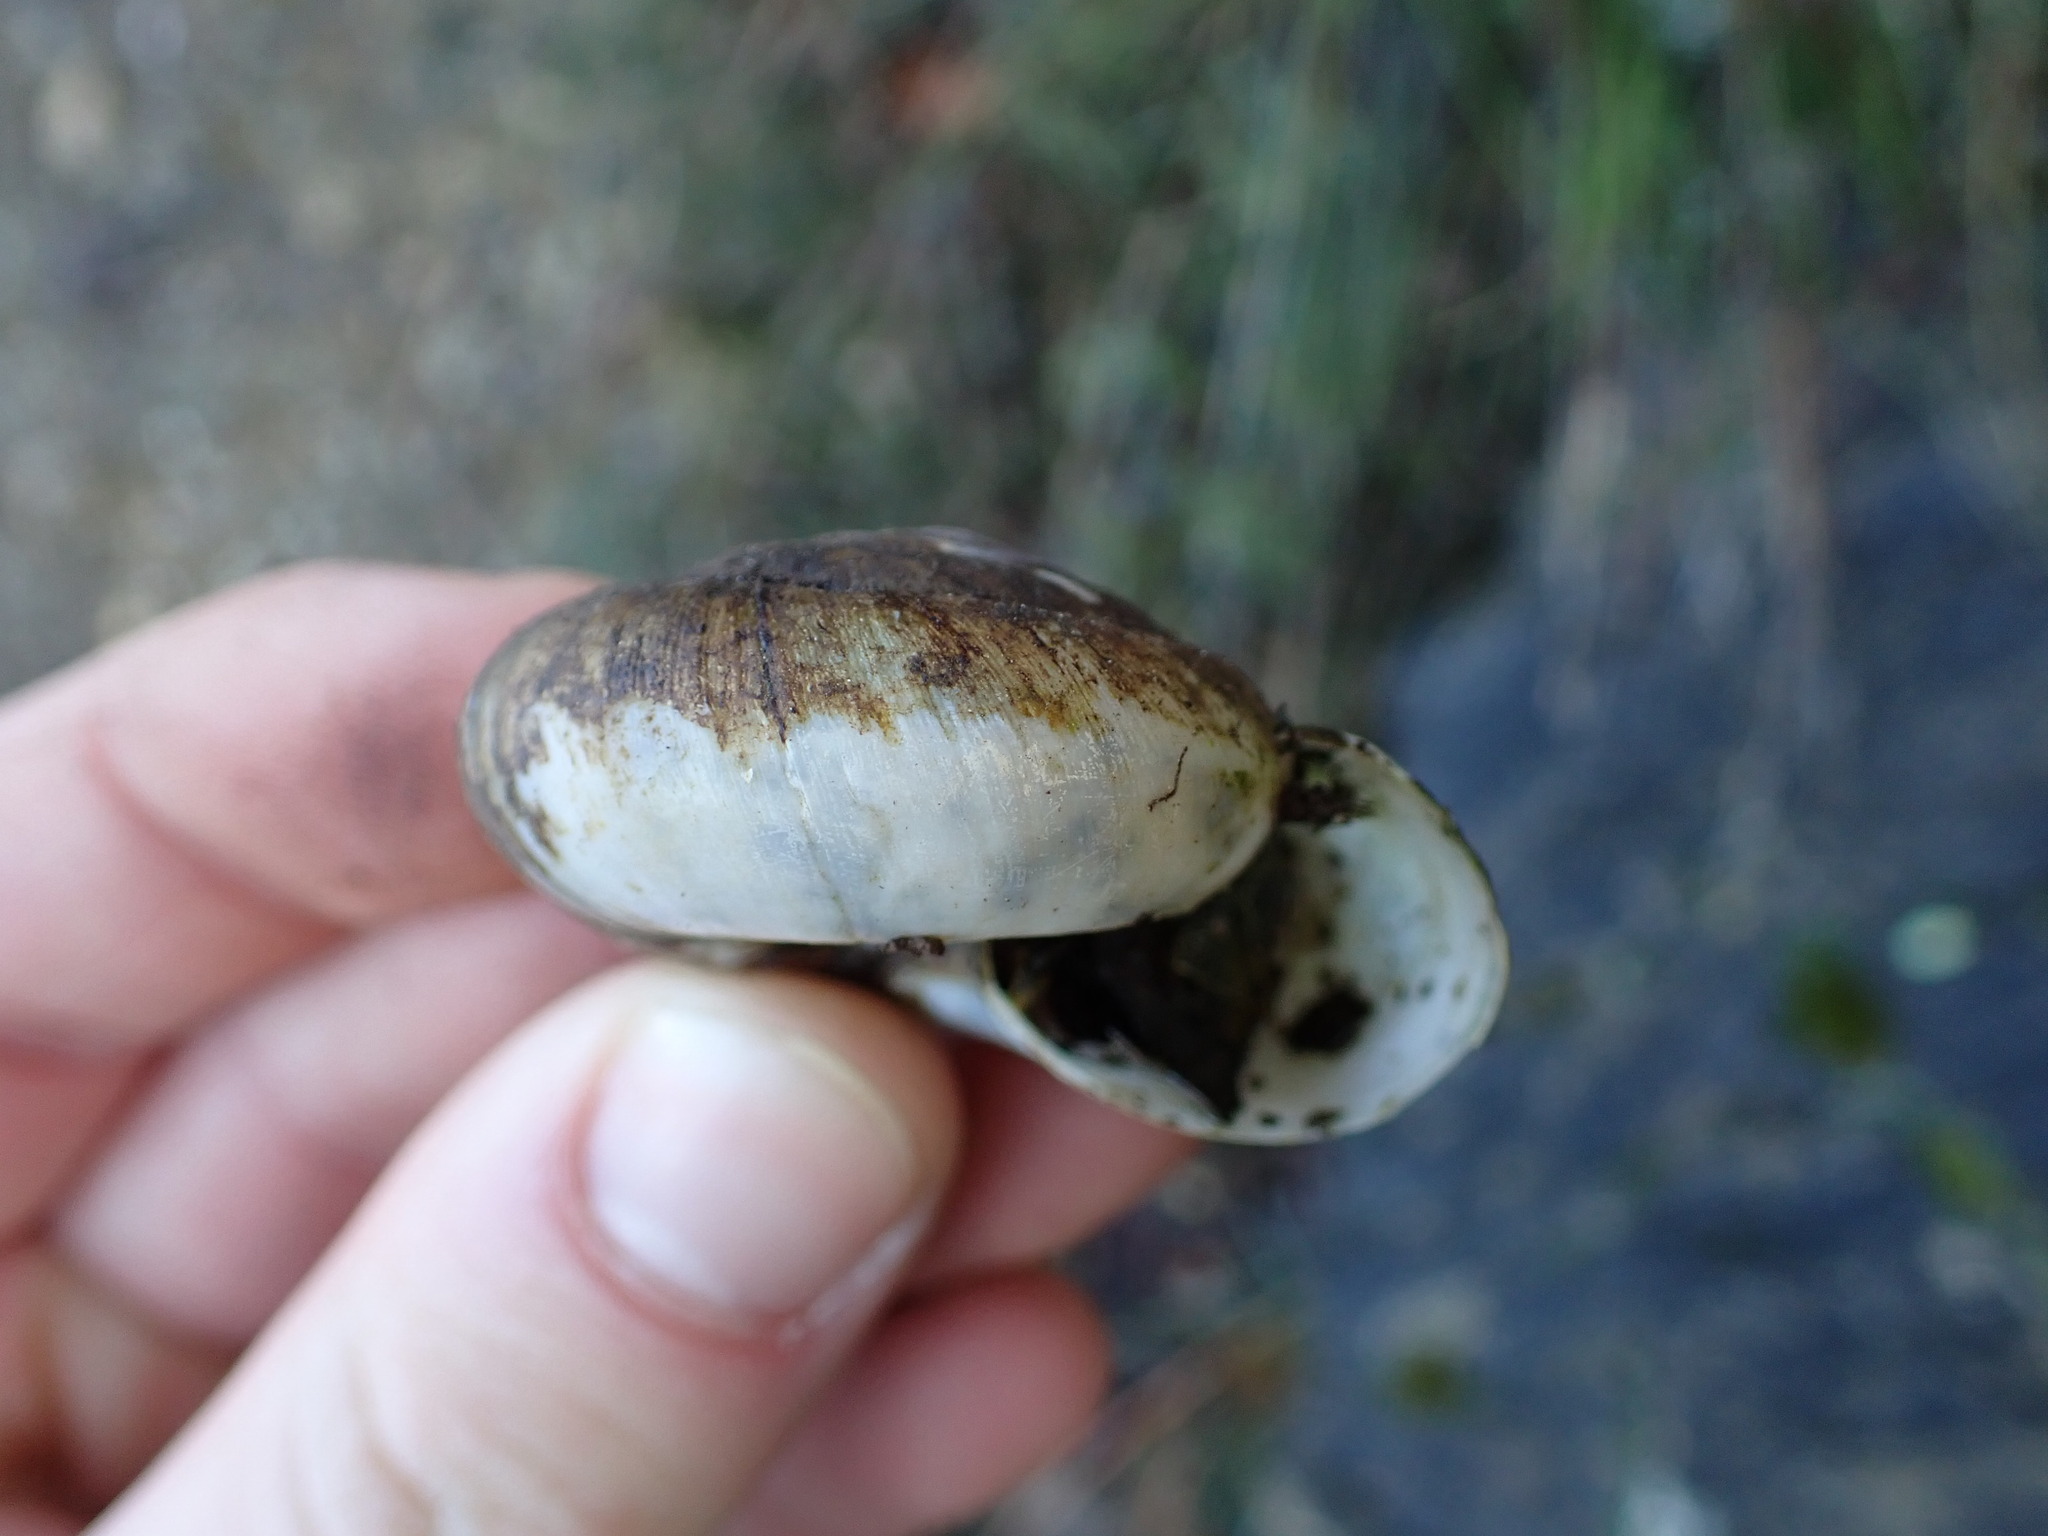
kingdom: Animalia
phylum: Mollusca
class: Gastropoda
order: Stylommatophora
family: Zonitidae
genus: Zonites
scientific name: Zonites algirus
